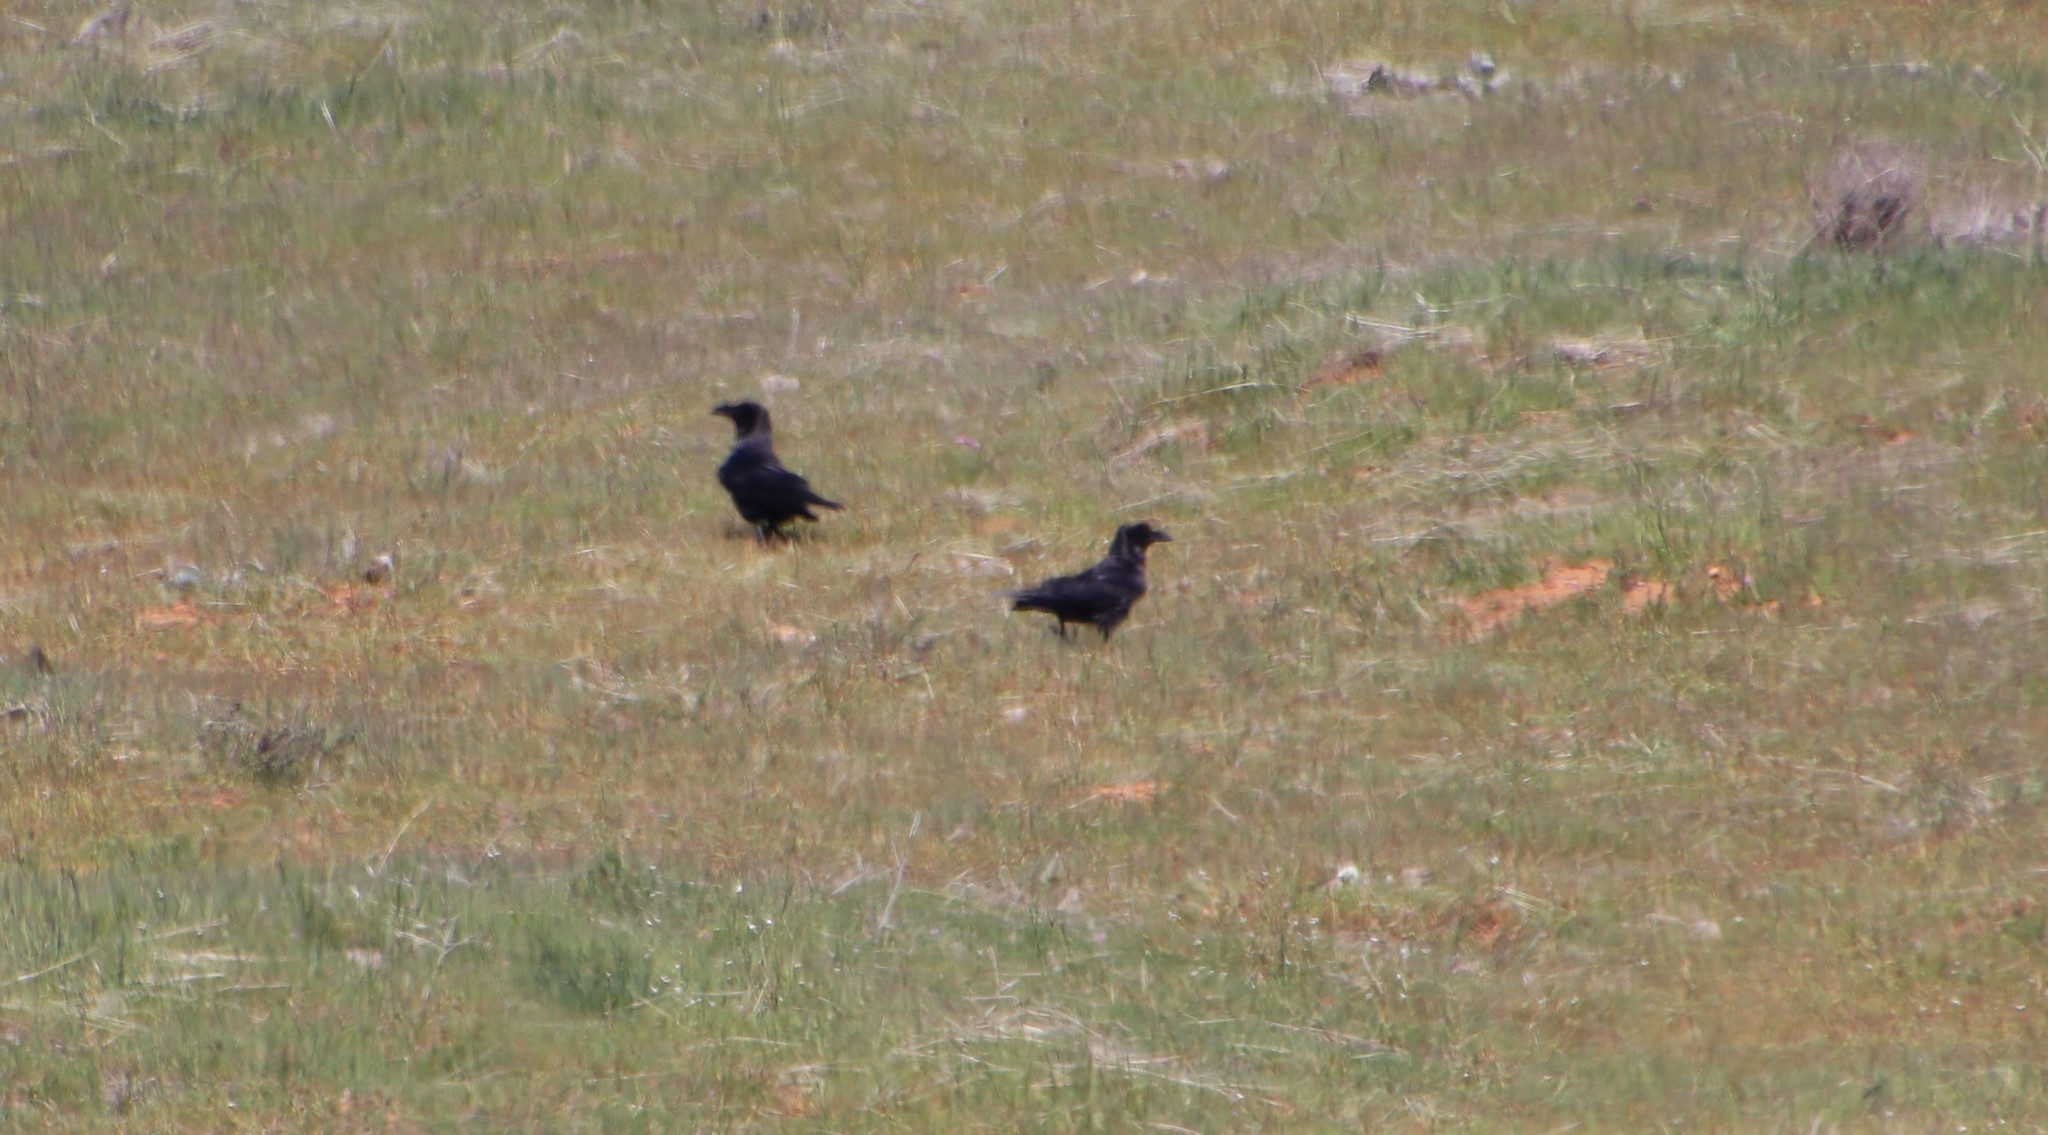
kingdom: Animalia
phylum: Chordata
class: Aves
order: Passeriformes
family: Corvidae
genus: Corvus
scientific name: Corvus corax
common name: Common raven
